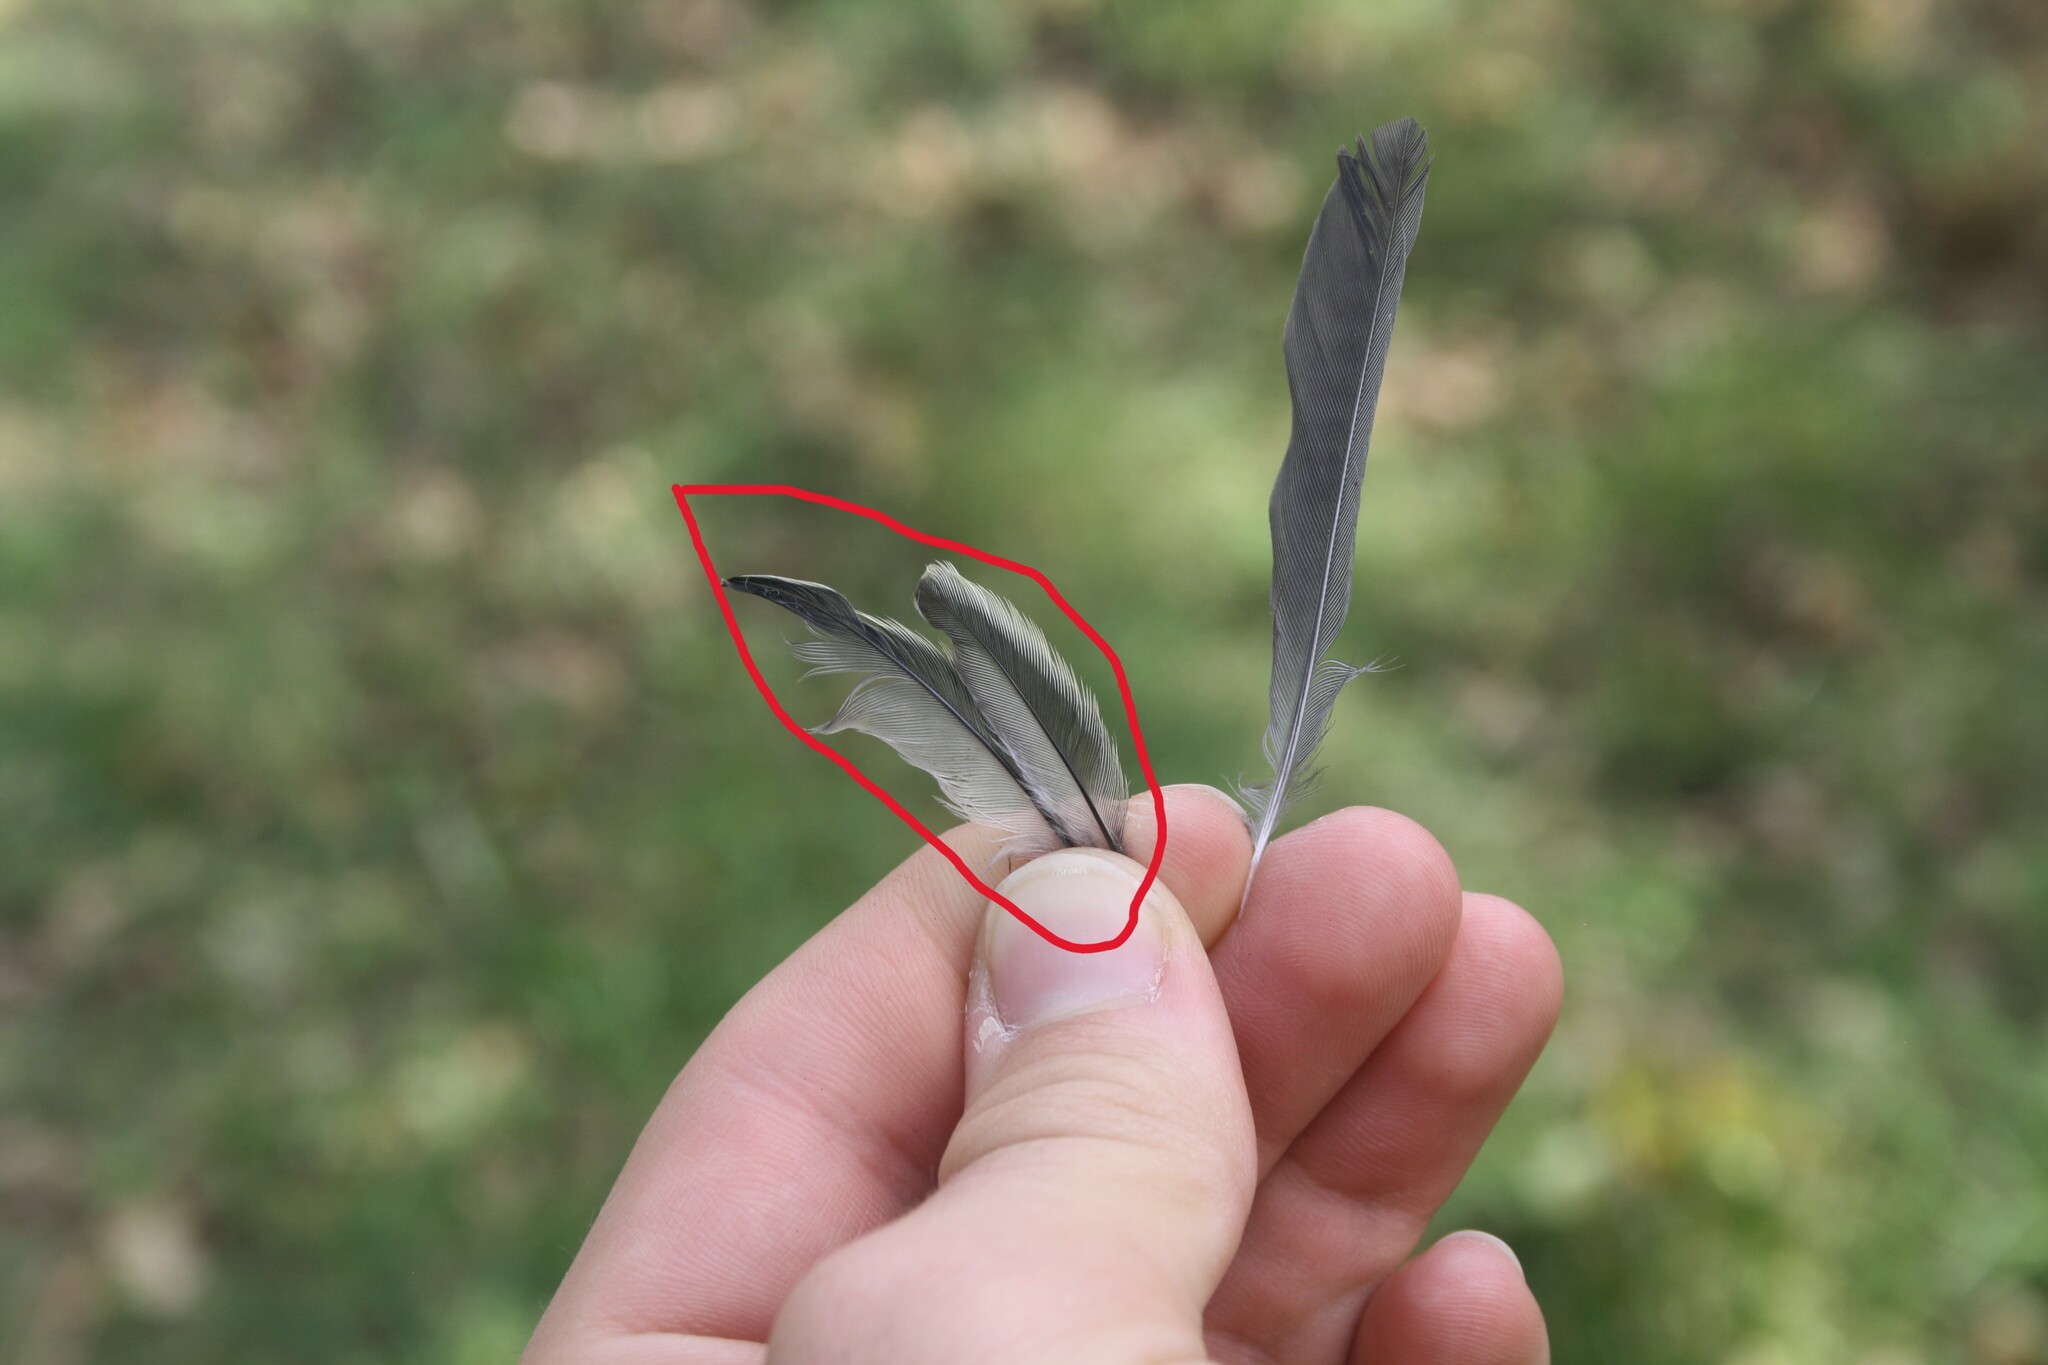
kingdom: Animalia
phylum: Chordata
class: Aves
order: Passeriformes
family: Paridae
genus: Parus
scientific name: Parus major
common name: Great tit
